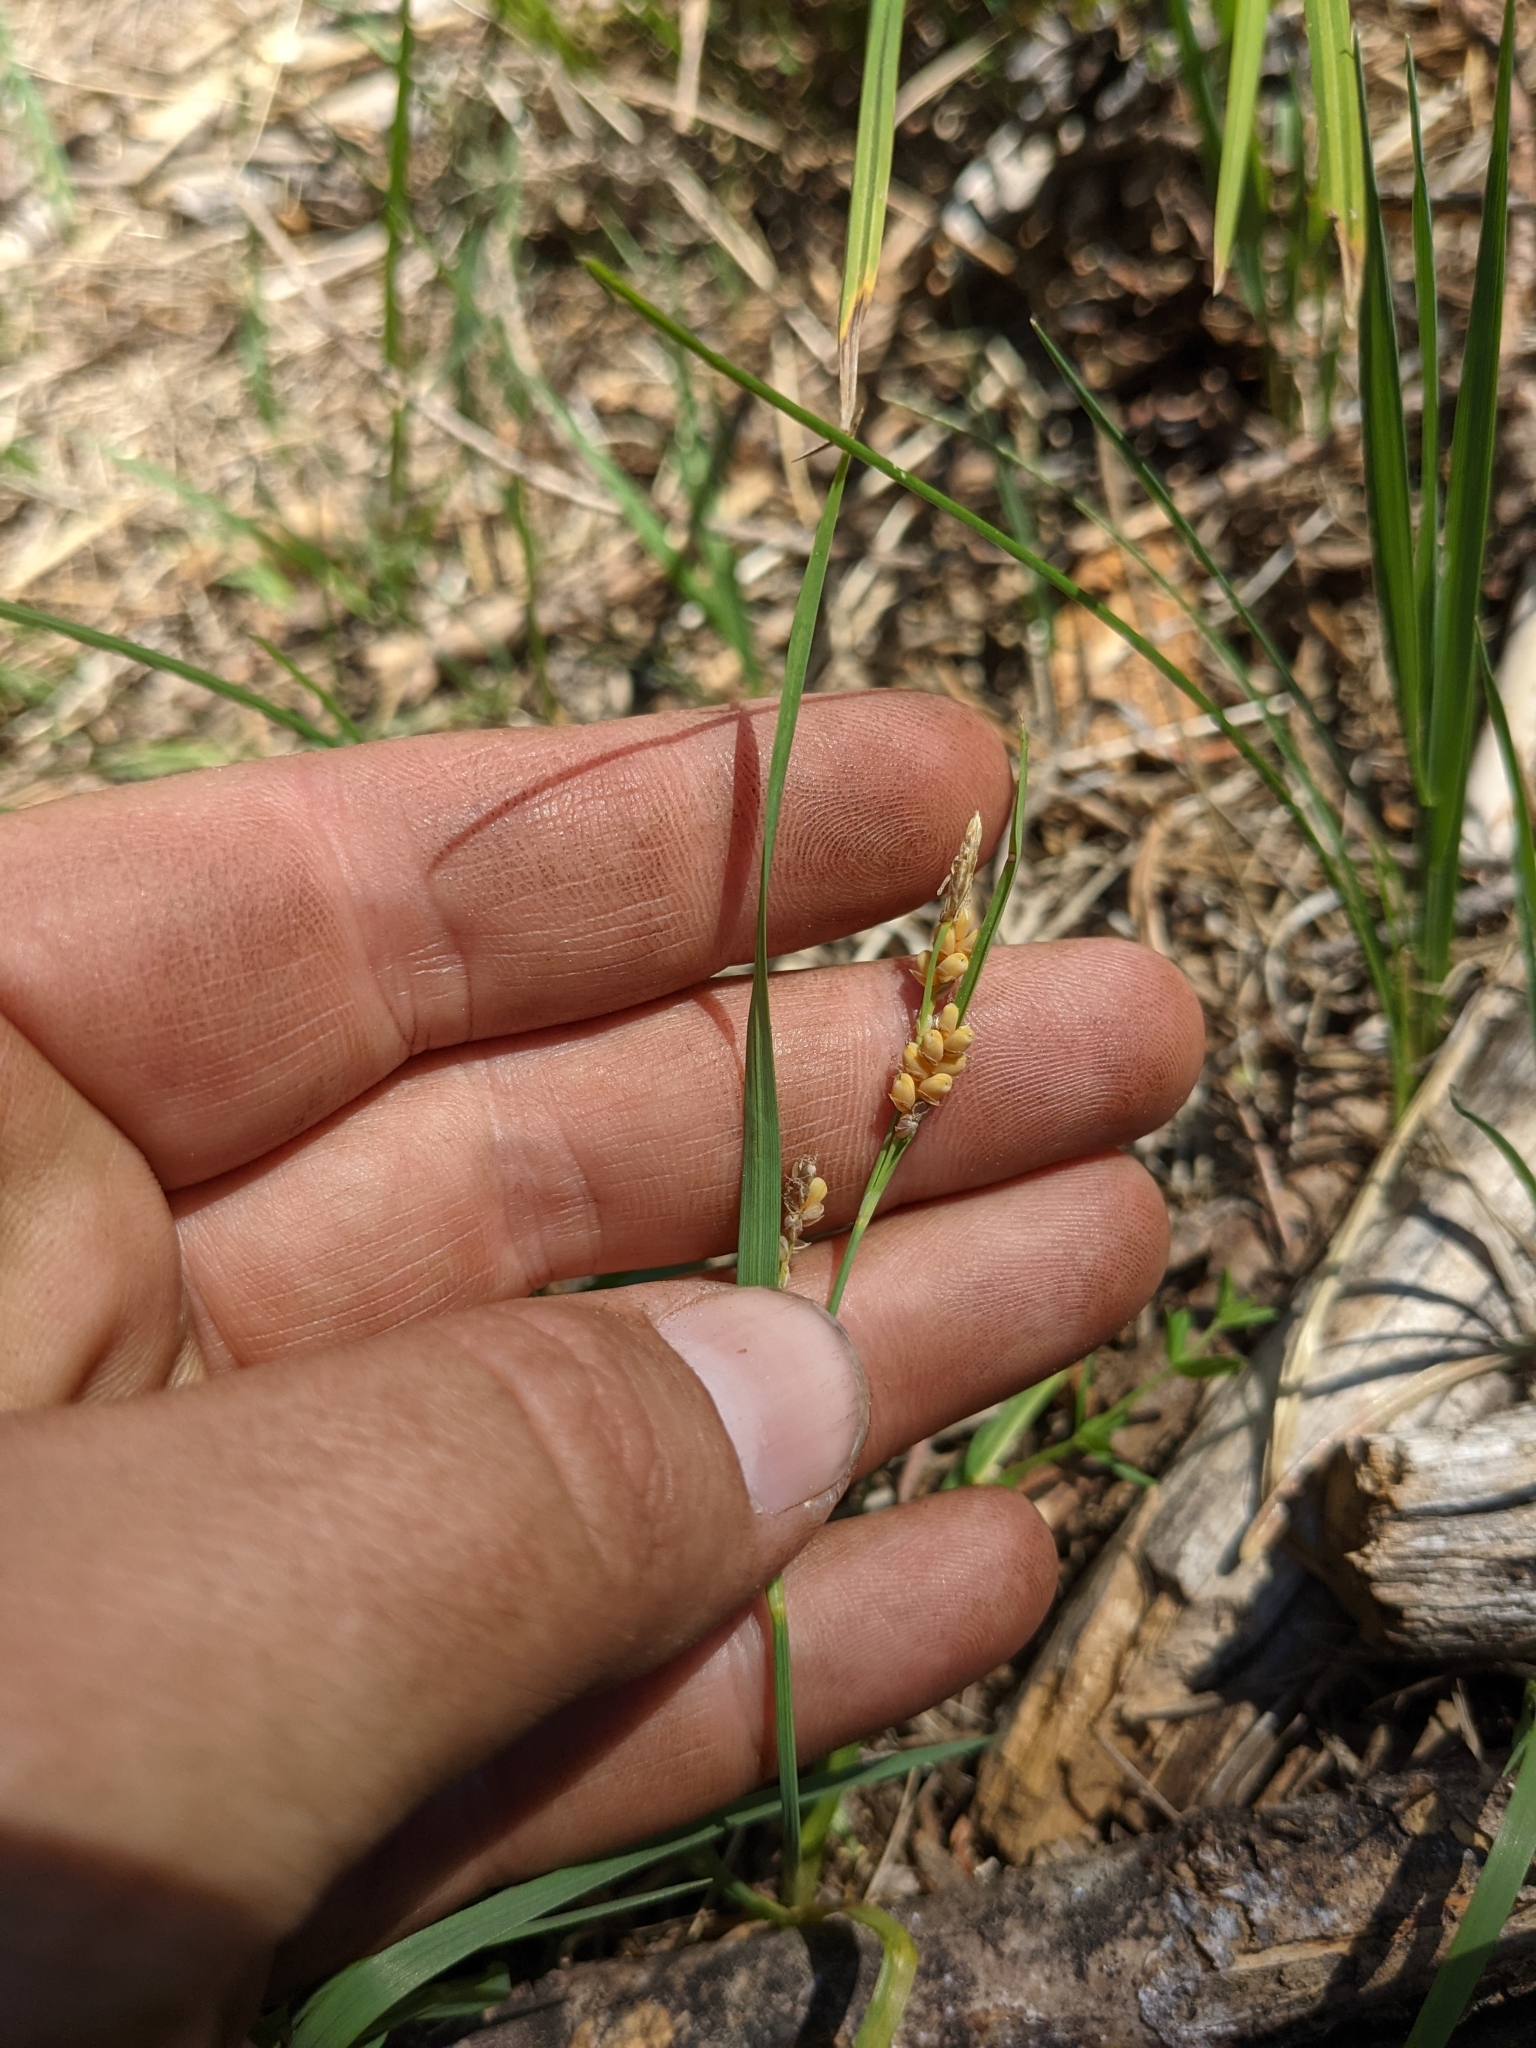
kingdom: Plantae
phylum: Tracheophyta
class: Liliopsida
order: Poales
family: Cyperaceae
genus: Carex
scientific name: Carex aurea
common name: Golden sedge
